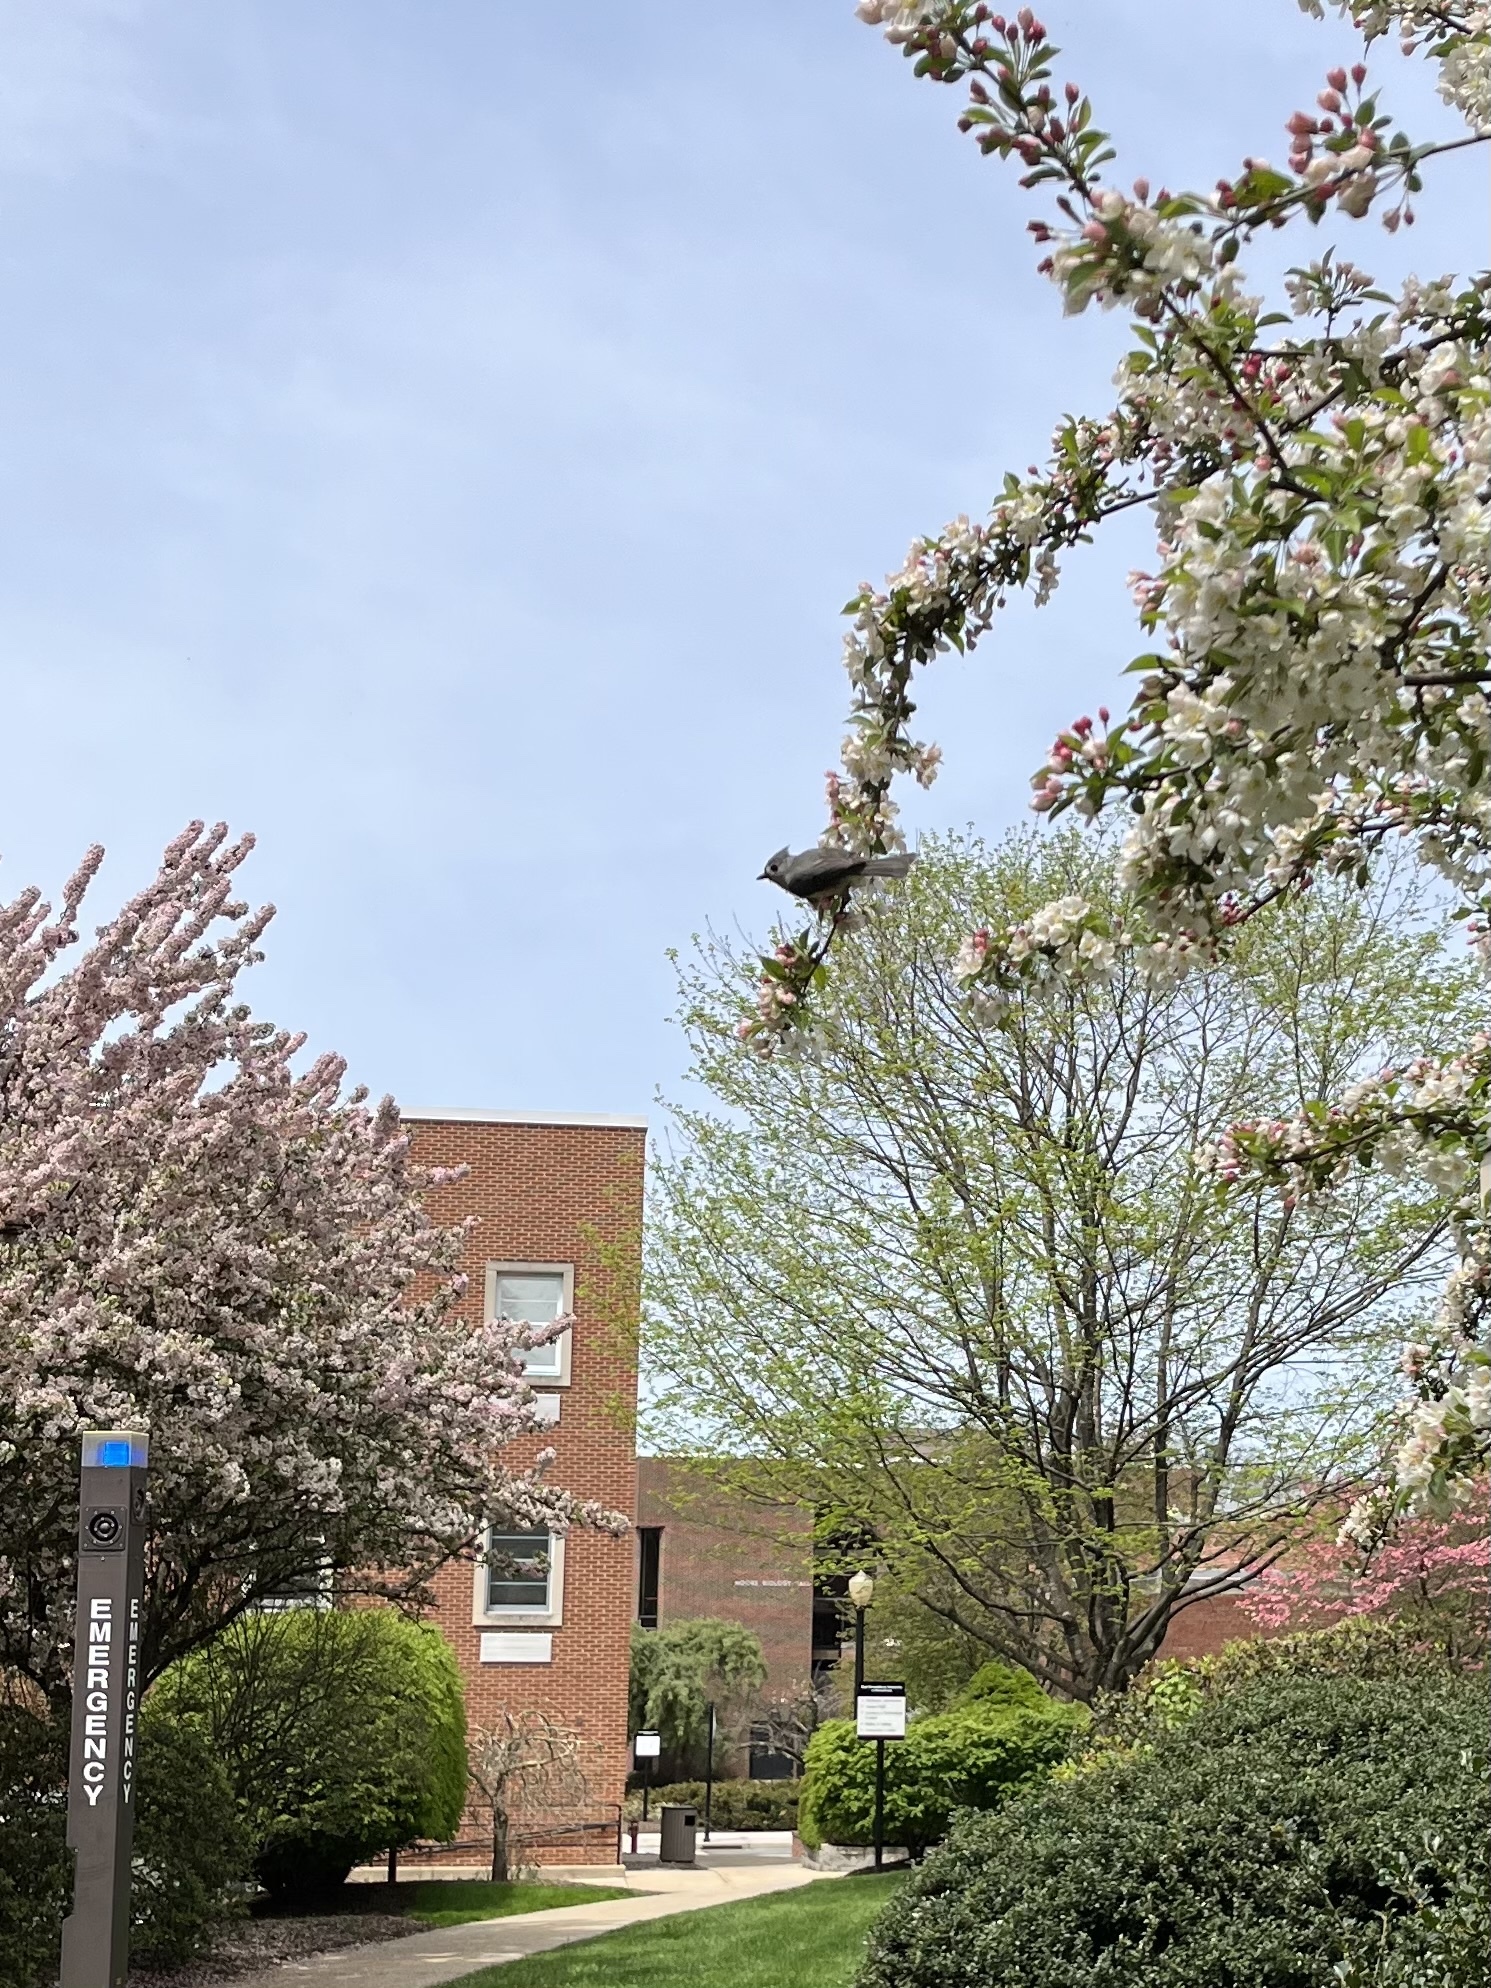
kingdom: Animalia
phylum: Chordata
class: Aves
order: Passeriformes
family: Paridae
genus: Baeolophus
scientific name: Baeolophus bicolor
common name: Tufted titmouse
